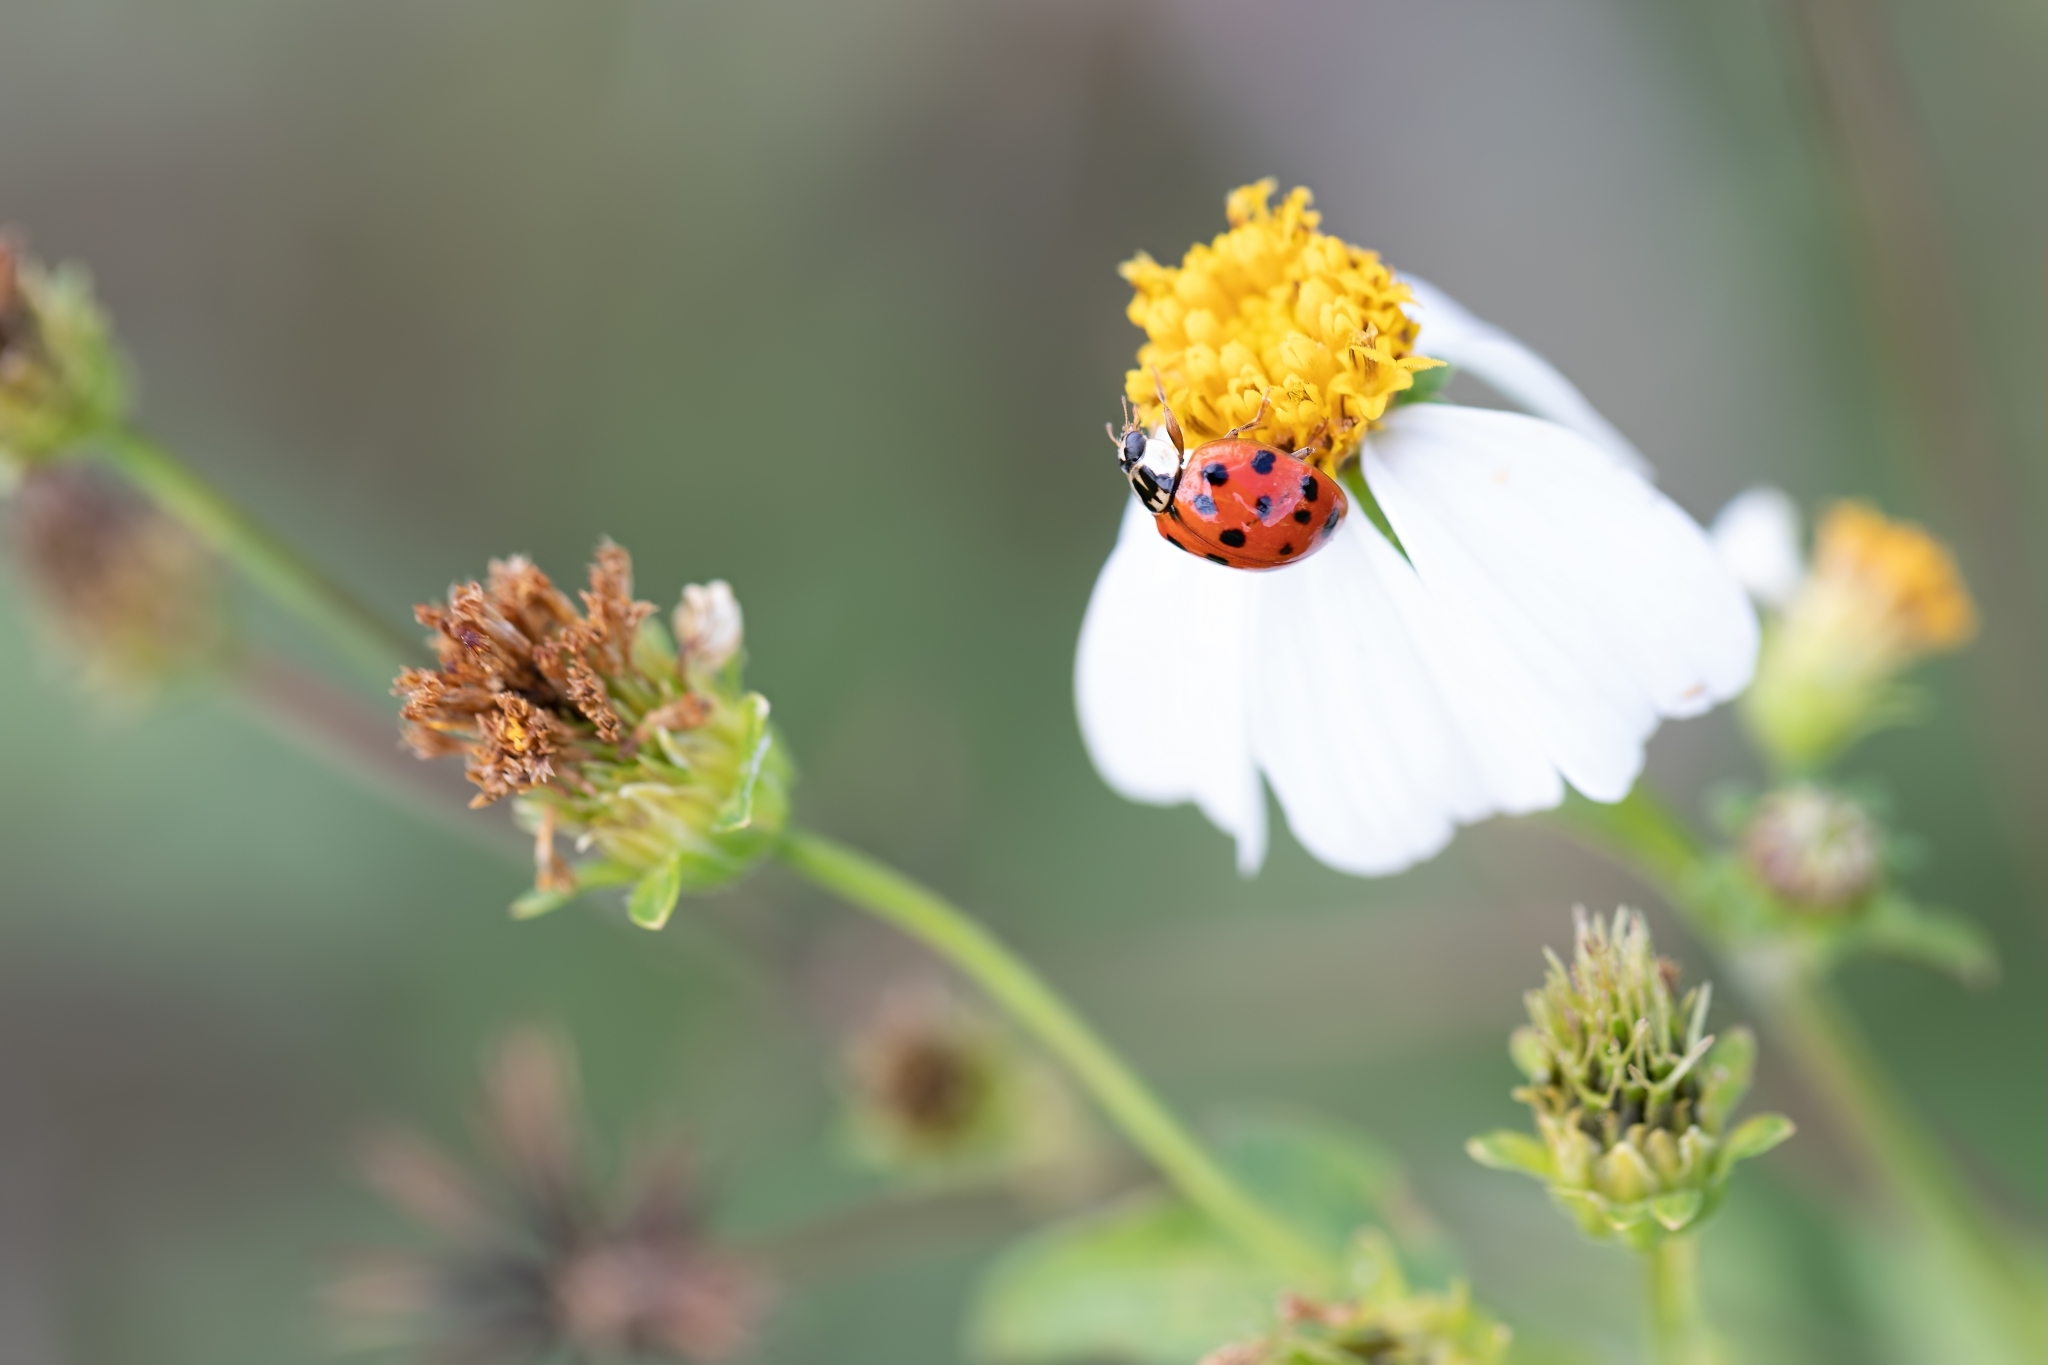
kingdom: Animalia
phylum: Arthropoda
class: Insecta
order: Coleoptera
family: Coccinellidae
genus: Harmonia
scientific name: Harmonia axyridis
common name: Harlequin ladybird
